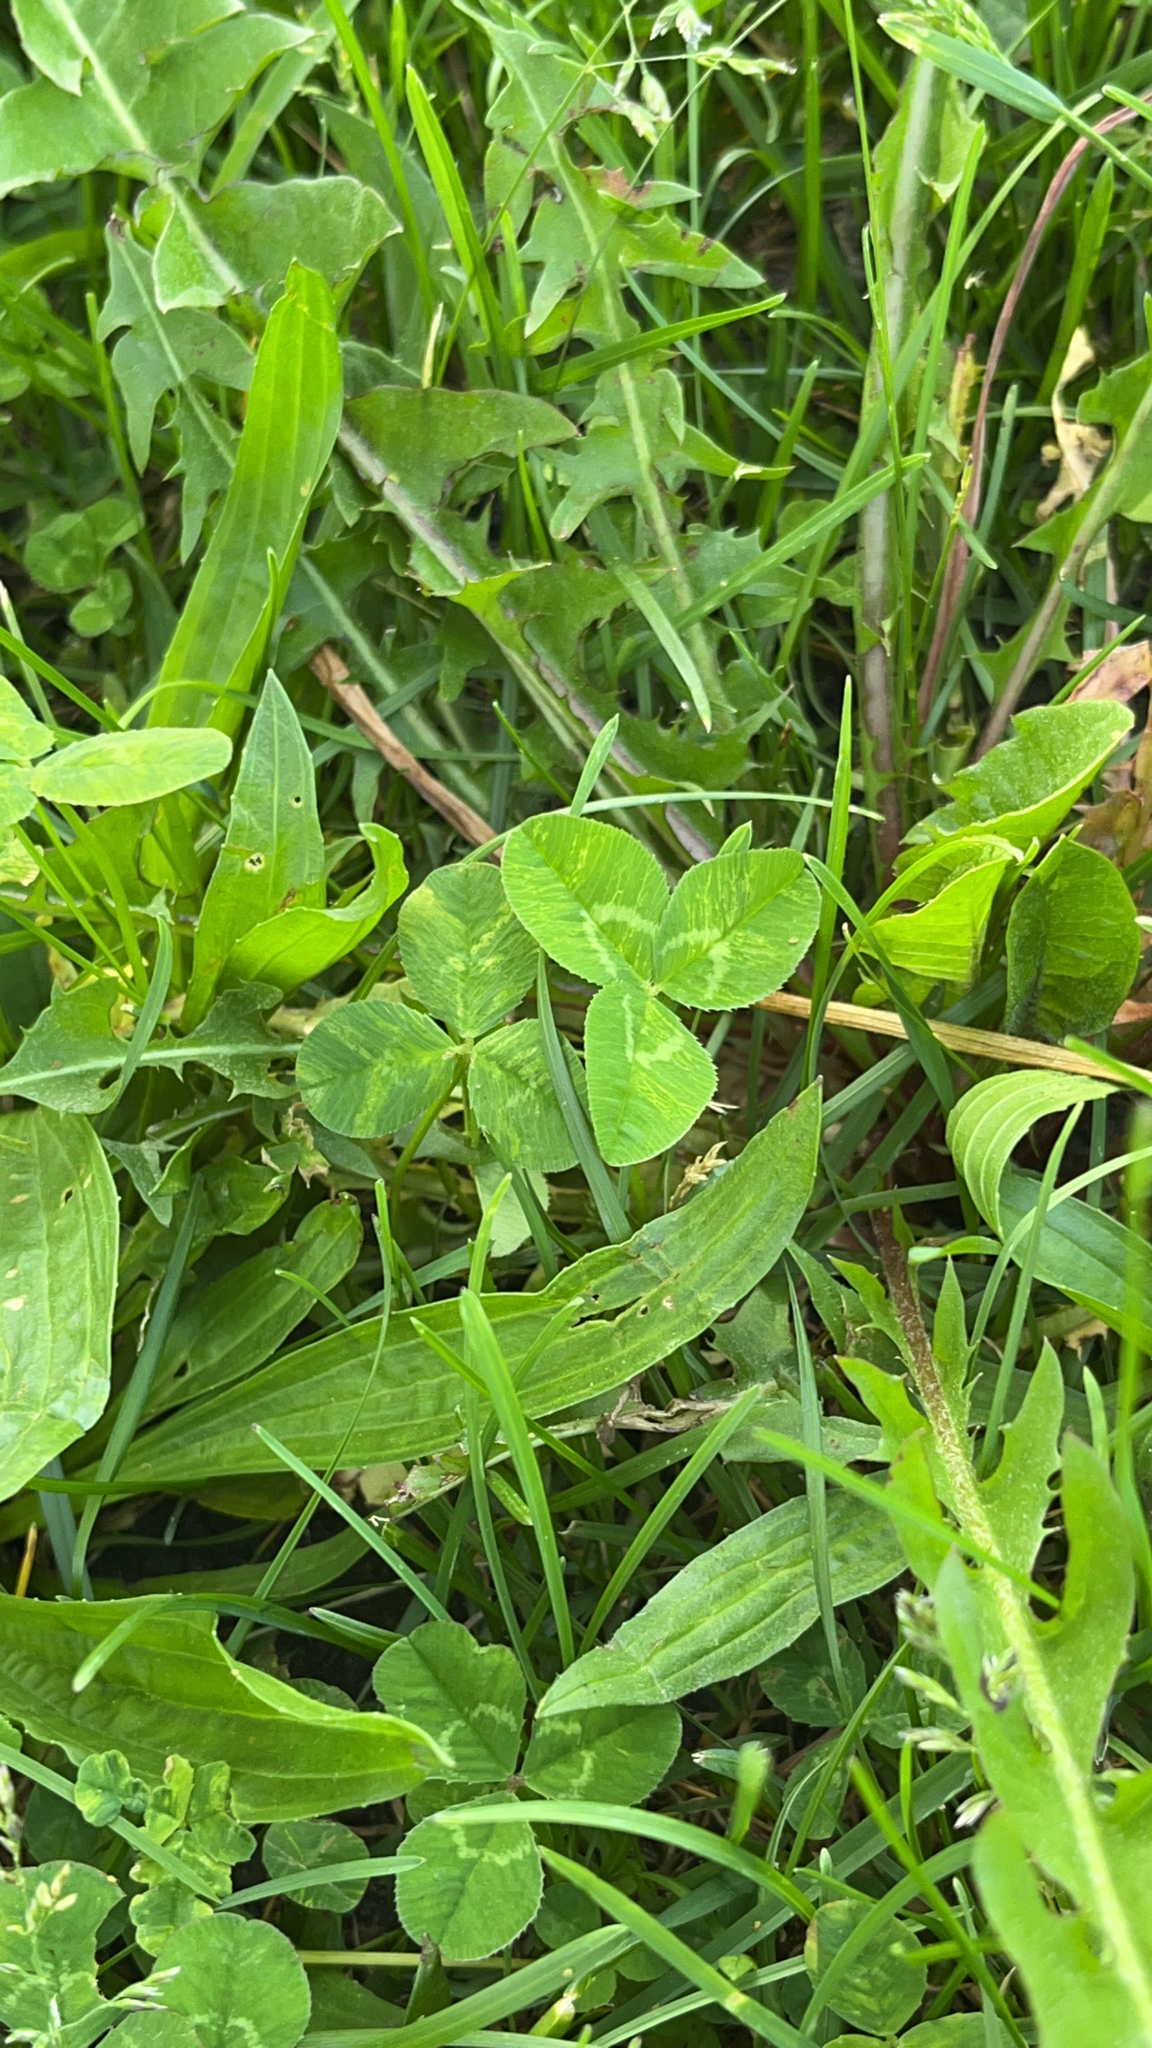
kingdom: Plantae
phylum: Tracheophyta
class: Magnoliopsida
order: Fabales
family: Fabaceae
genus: Trifolium
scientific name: Trifolium repens
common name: White clover
